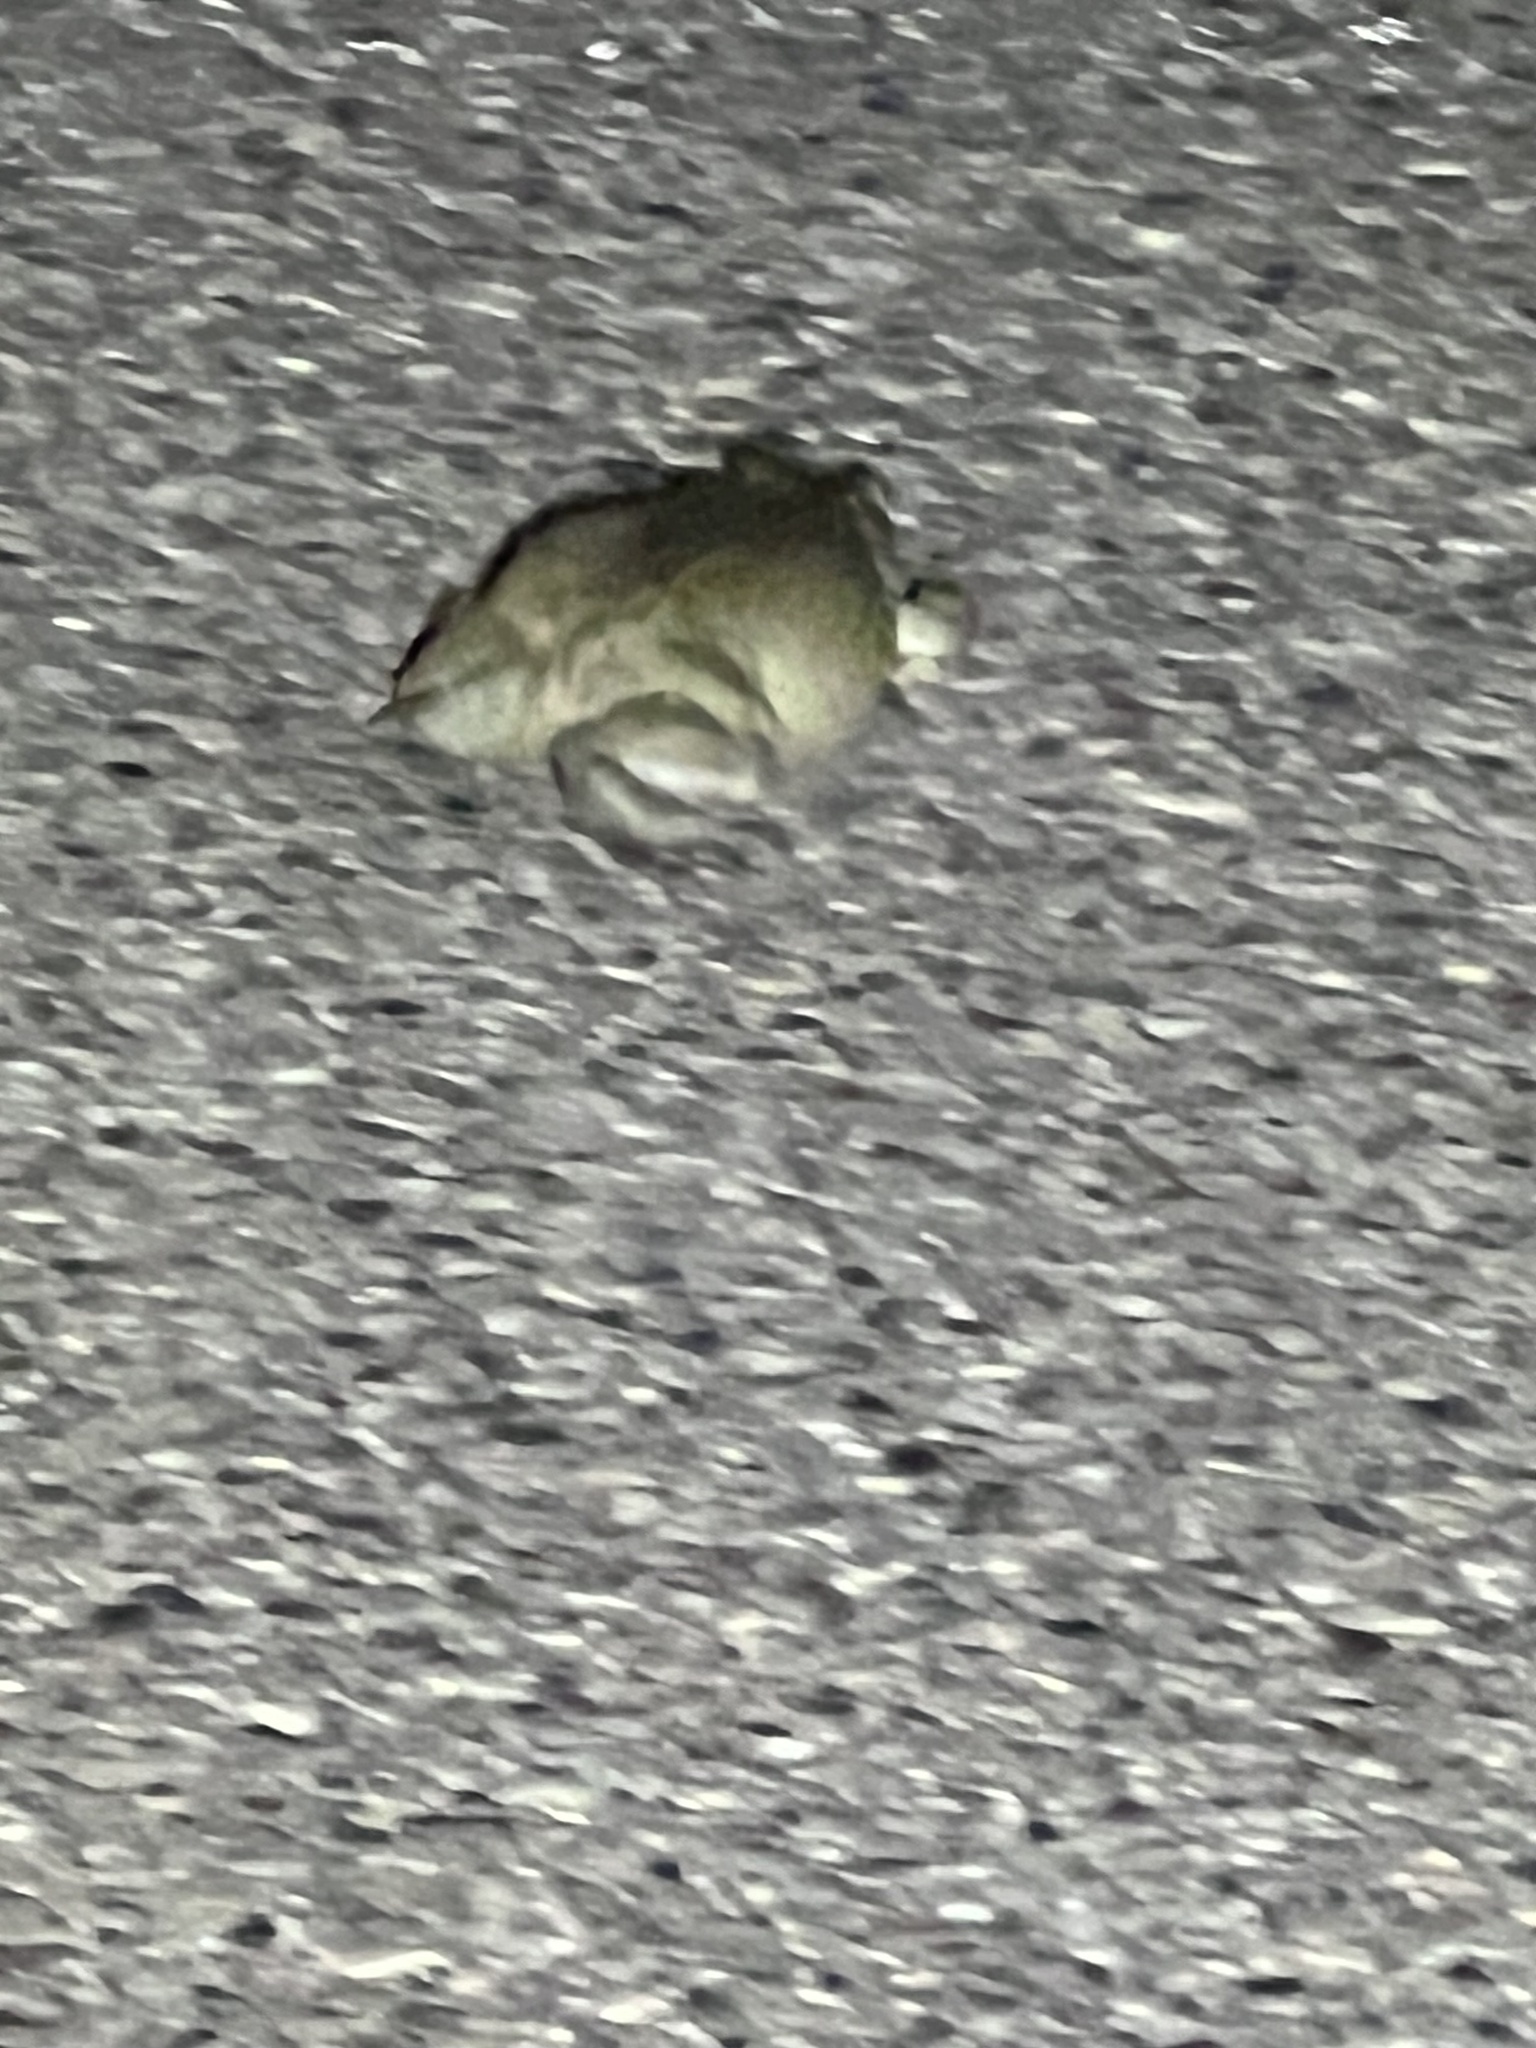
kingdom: Animalia
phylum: Chordata
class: Amphibia
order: Anura
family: Bufonidae
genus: Incilius
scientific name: Incilius alvarius
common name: Sonoran desert toad
